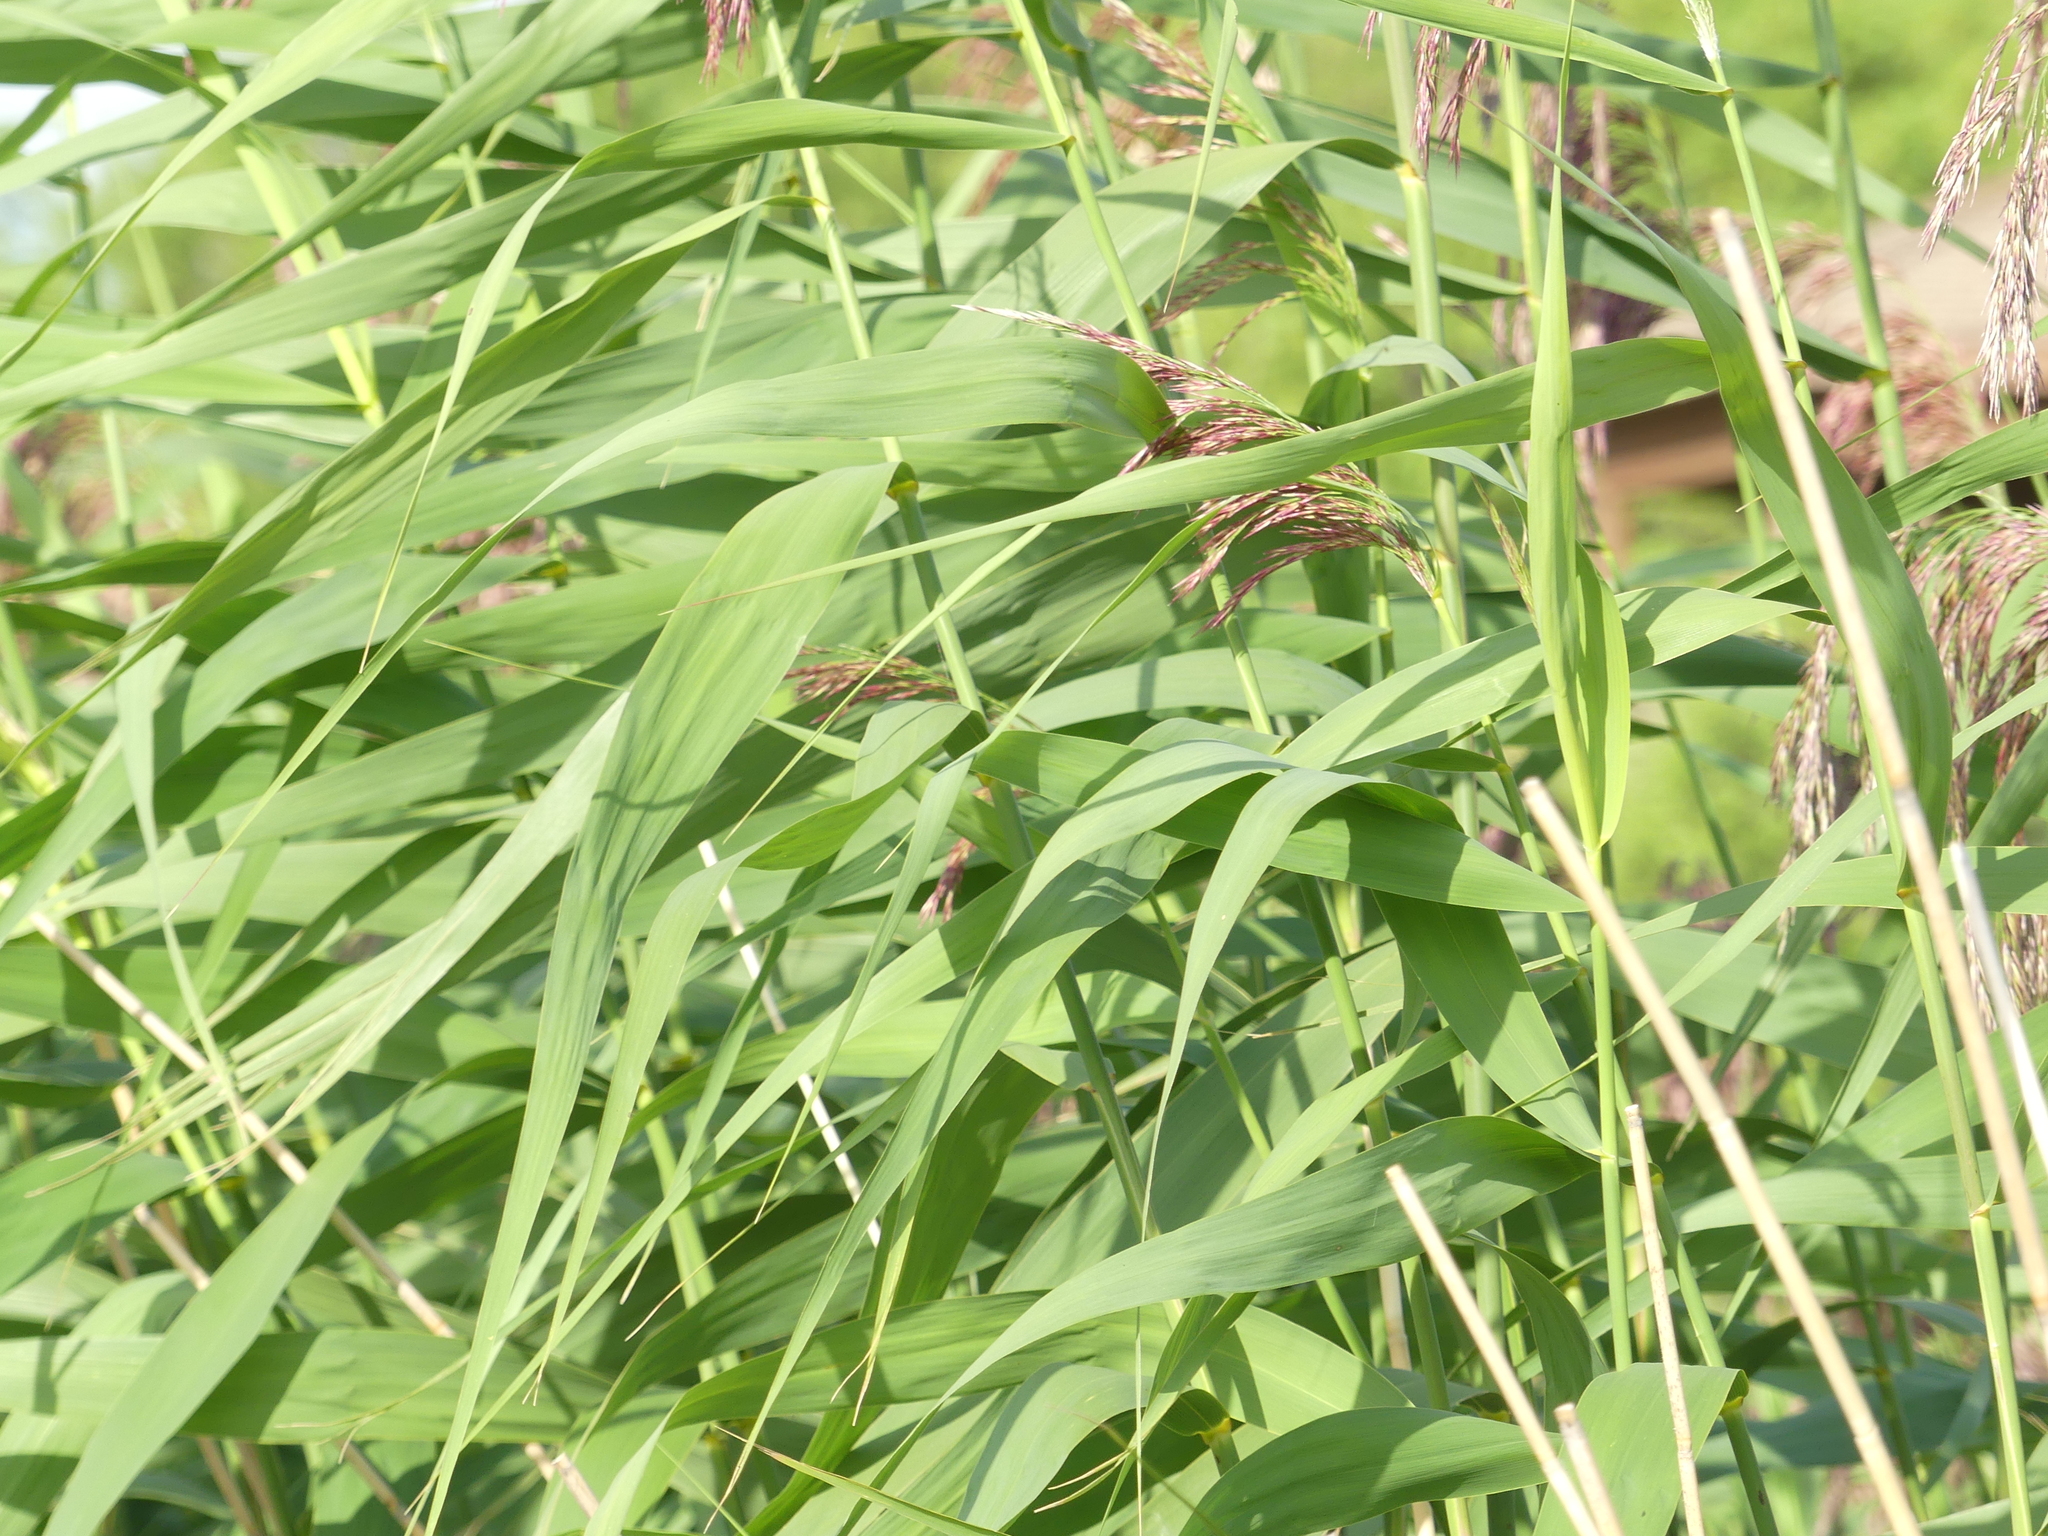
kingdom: Plantae
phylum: Tracheophyta
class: Liliopsida
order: Poales
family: Poaceae
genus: Phragmites
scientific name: Phragmites australis
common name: Common reed
